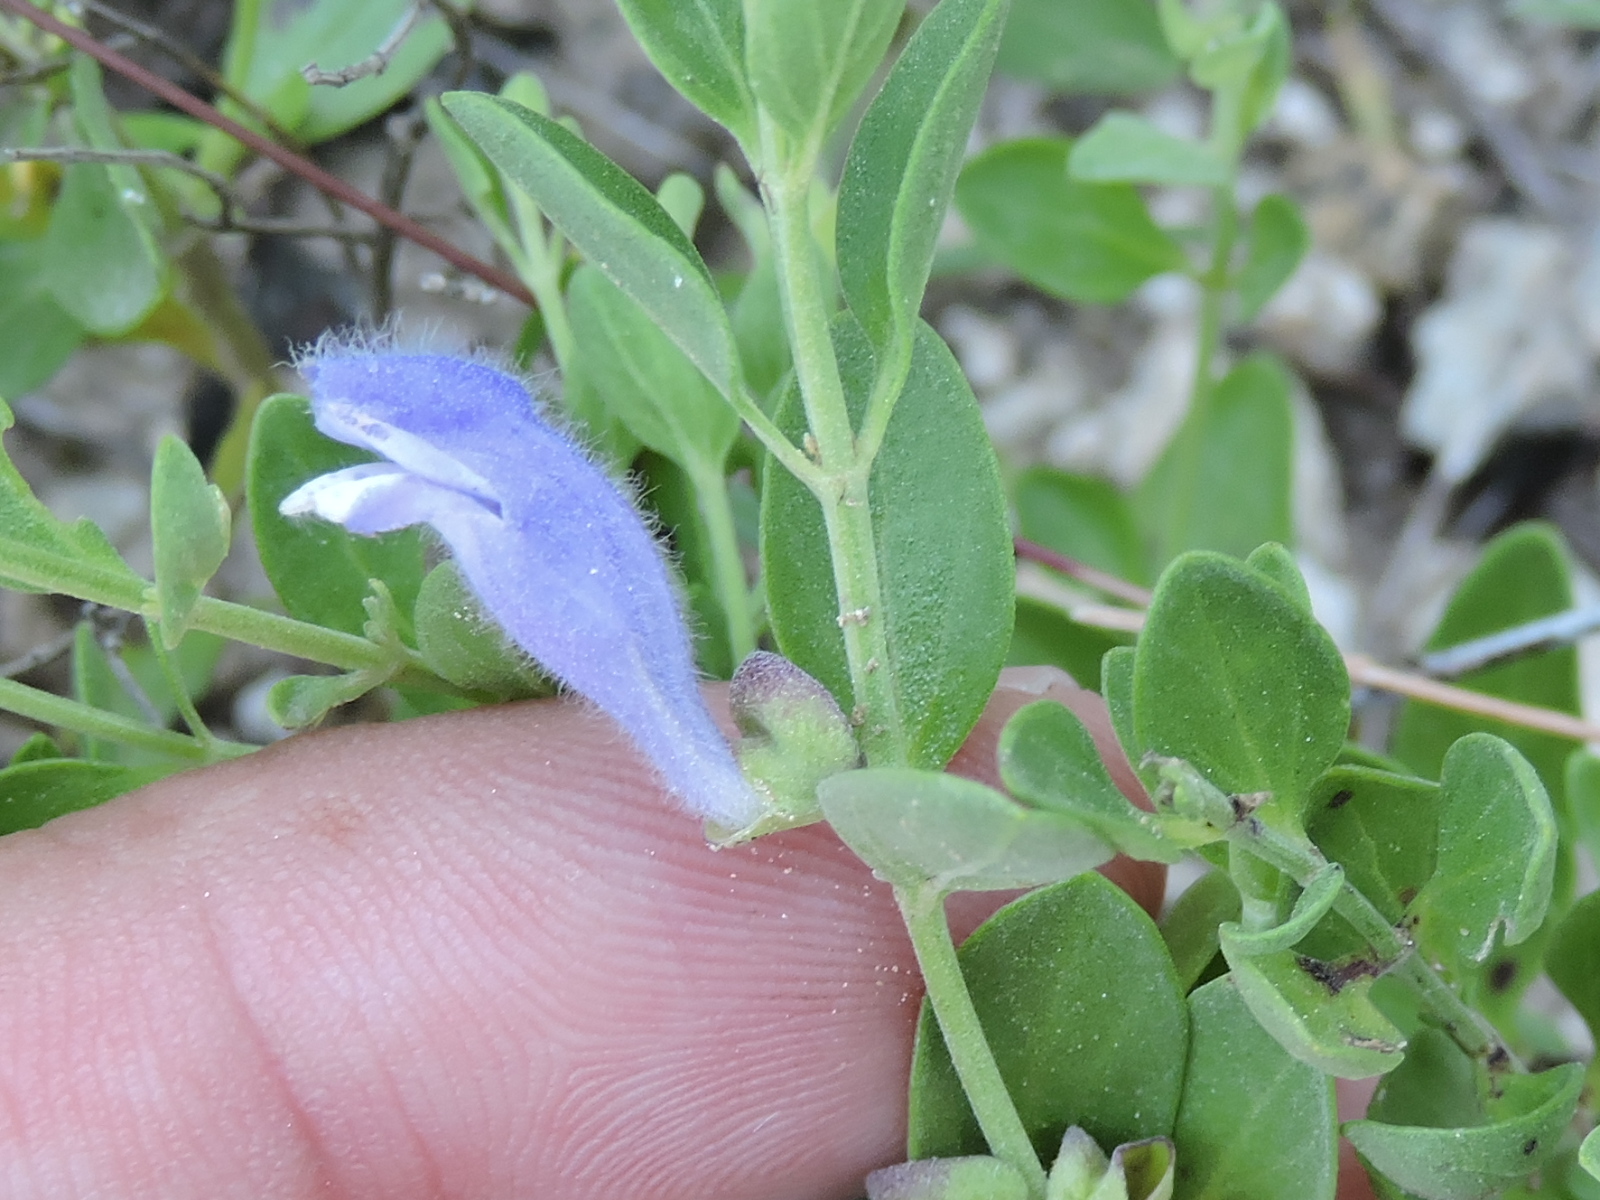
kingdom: Plantae
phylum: Tracheophyta
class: Magnoliopsida
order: Lamiales
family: Lamiaceae
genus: Scutellaria
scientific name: Scutellaria wrightii
